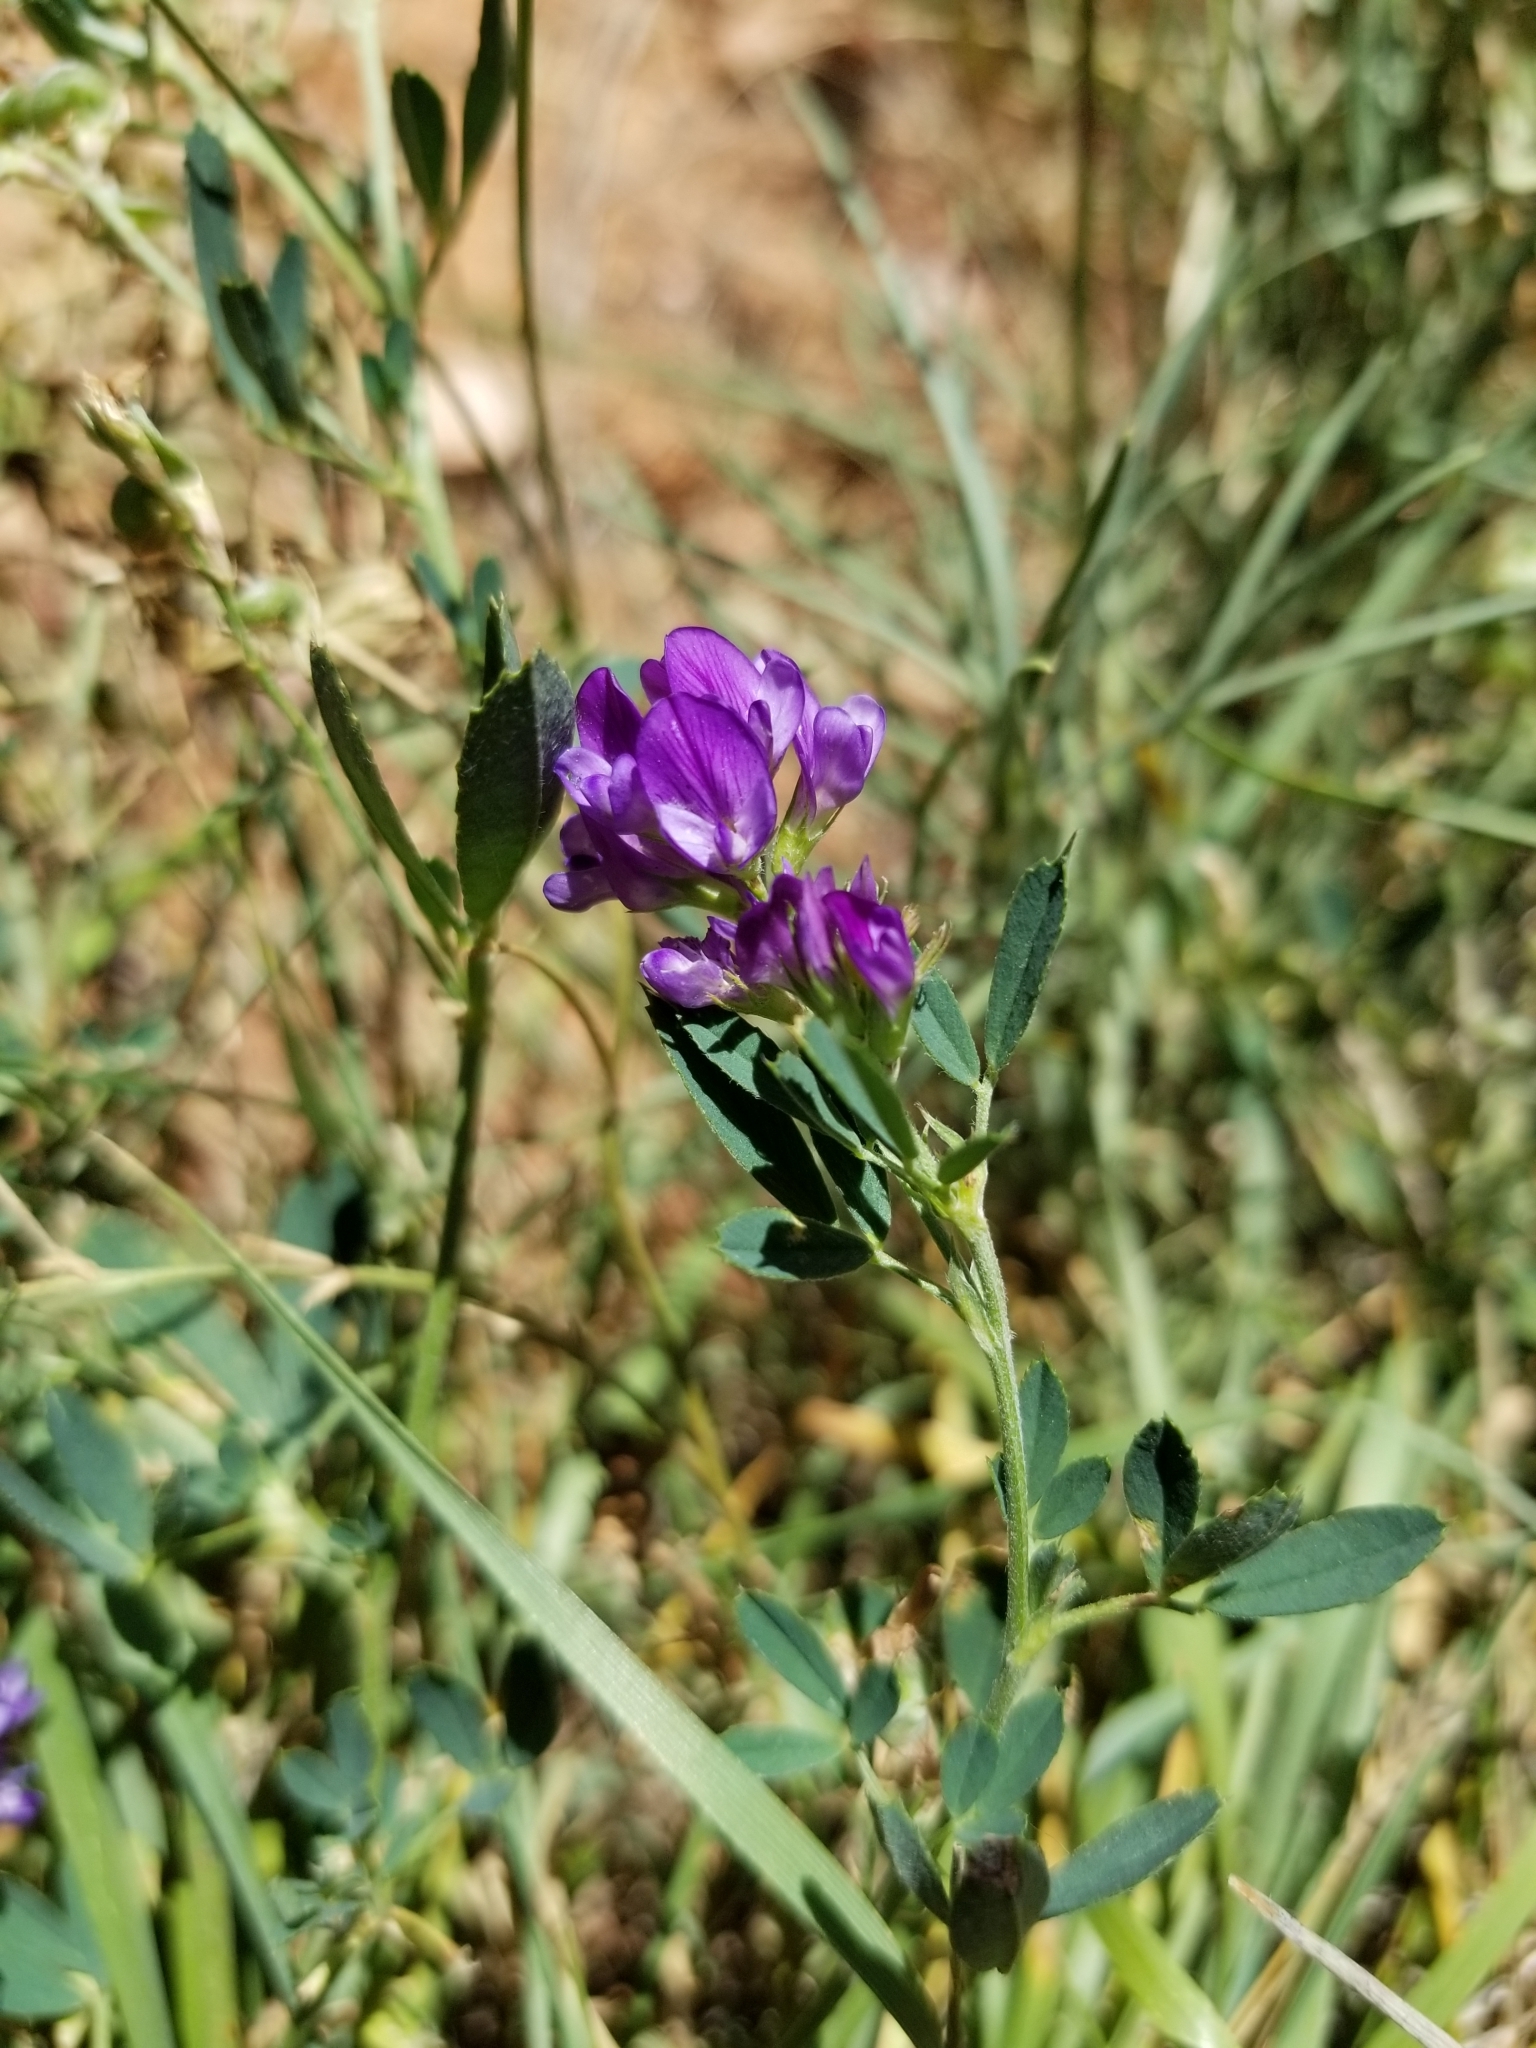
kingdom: Plantae
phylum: Tracheophyta
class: Magnoliopsida
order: Fabales
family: Fabaceae
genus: Medicago
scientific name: Medicago sativa
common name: Alfalfa
